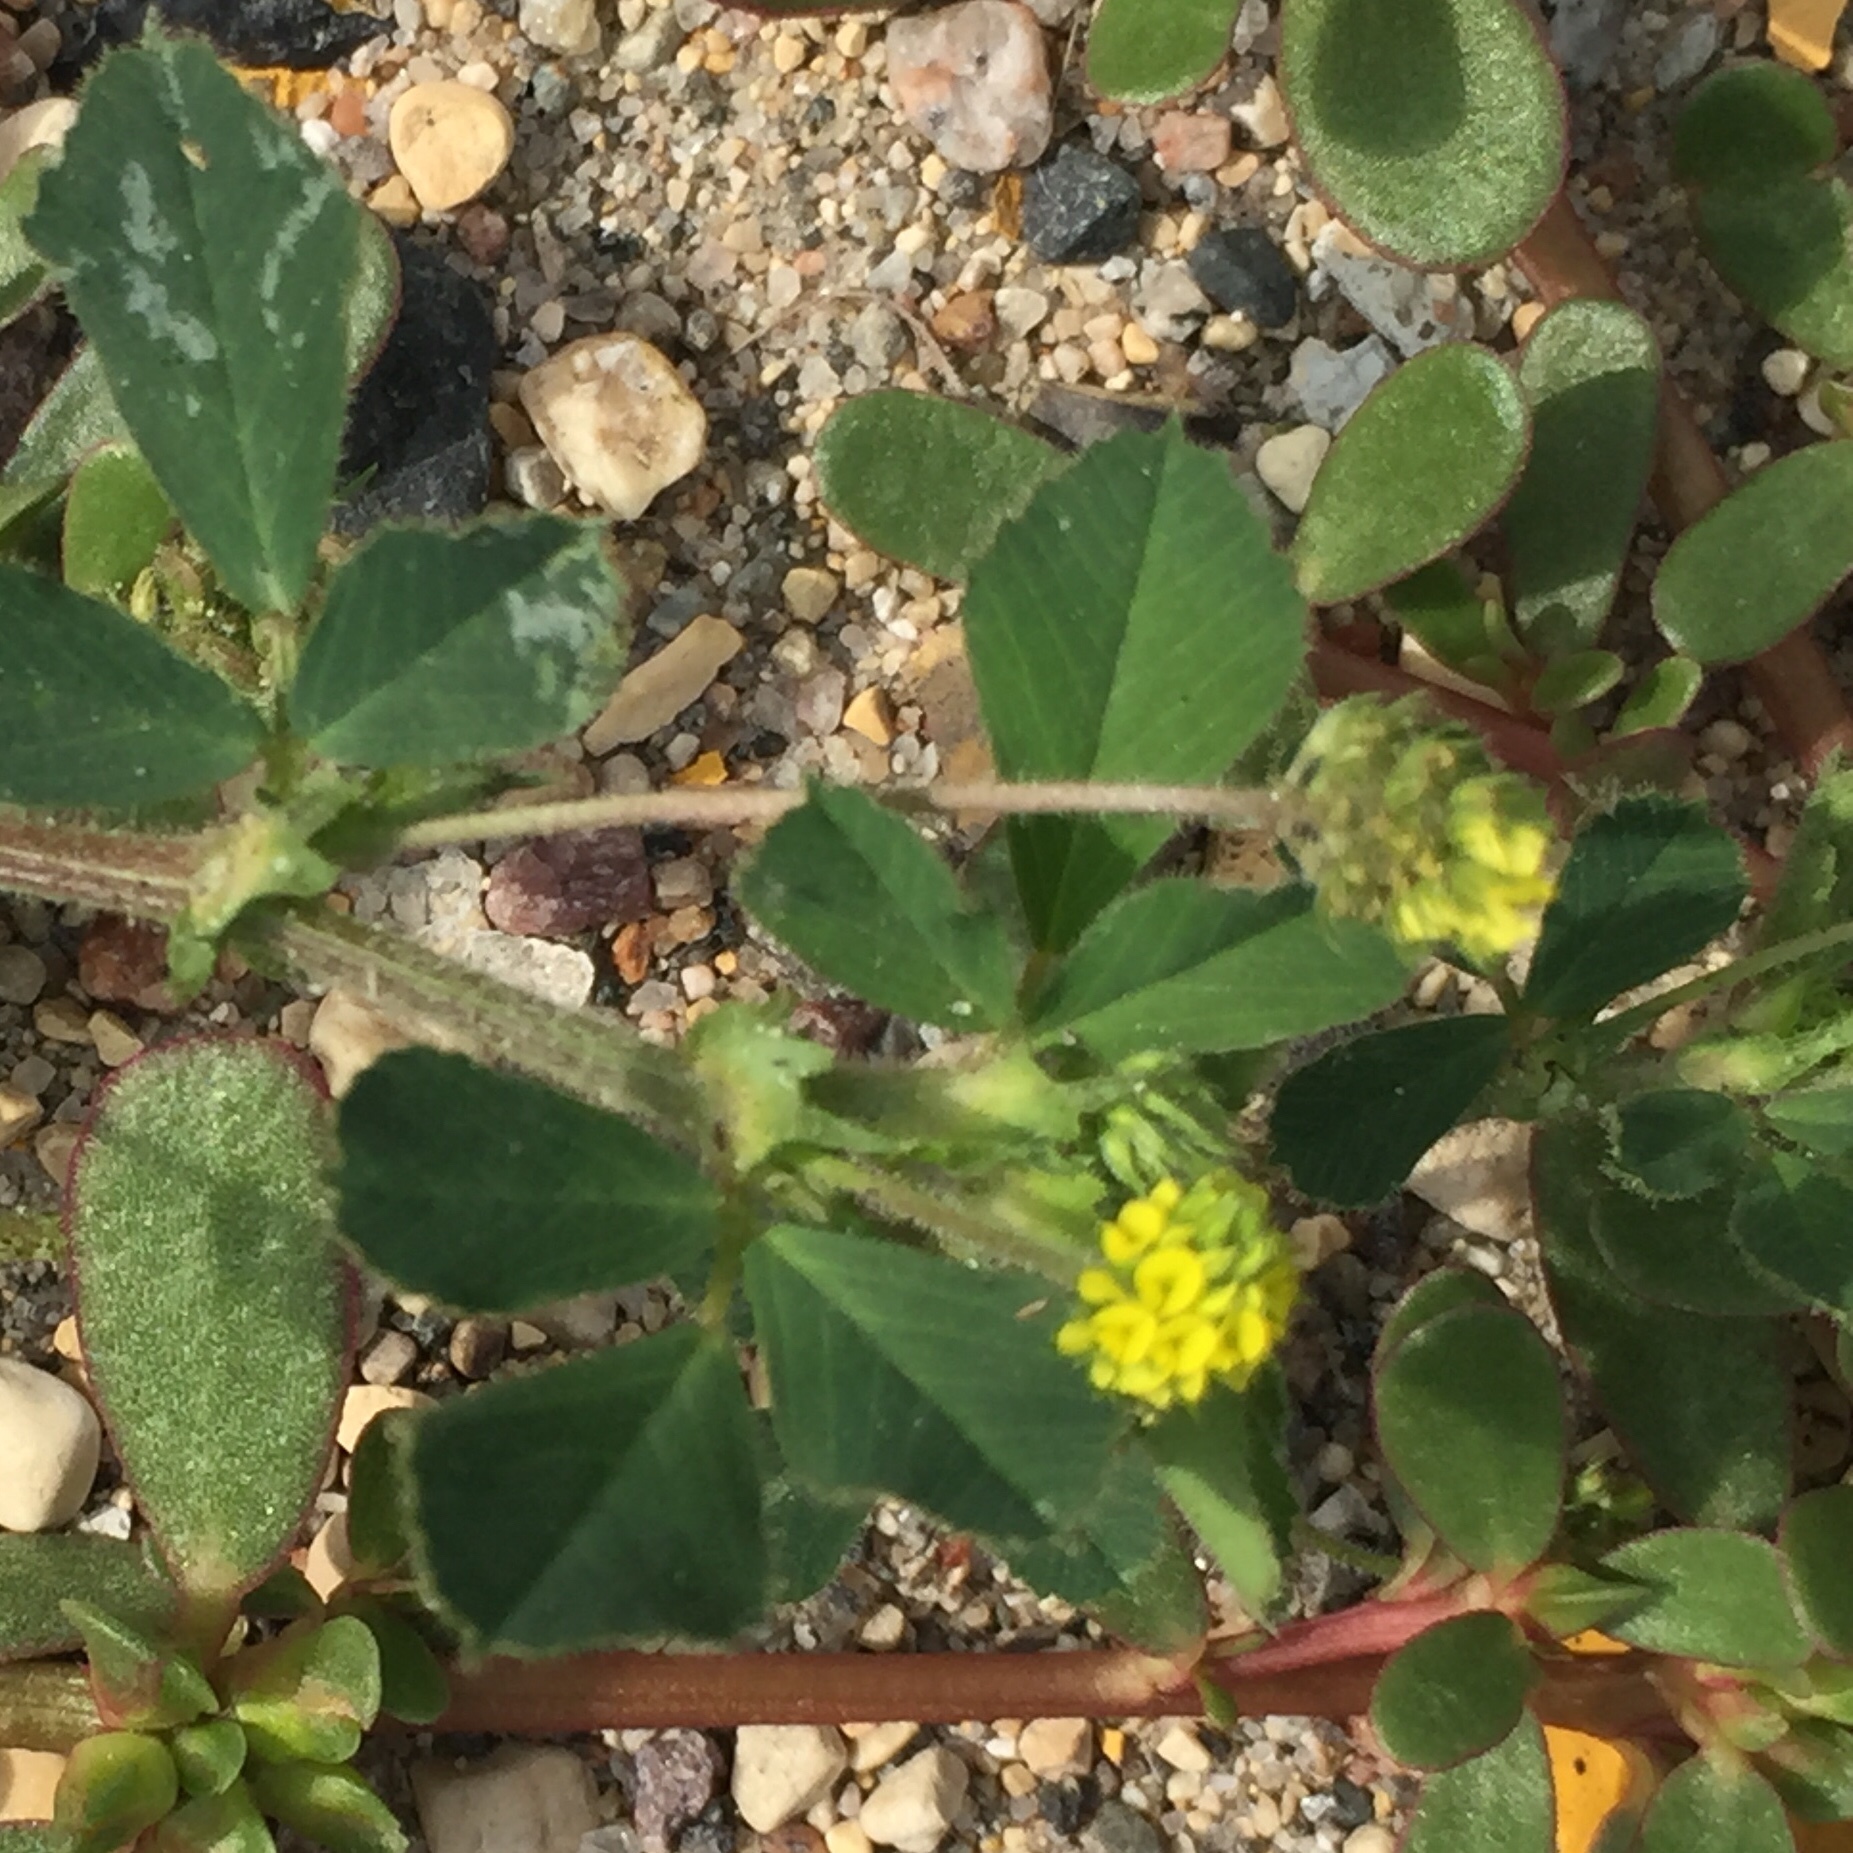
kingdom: Plantae
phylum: Tracheophyta
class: Magnoliopsida
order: Fabales
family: Fabaceae
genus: Medicago
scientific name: Medicago lupulina
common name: Black medick
